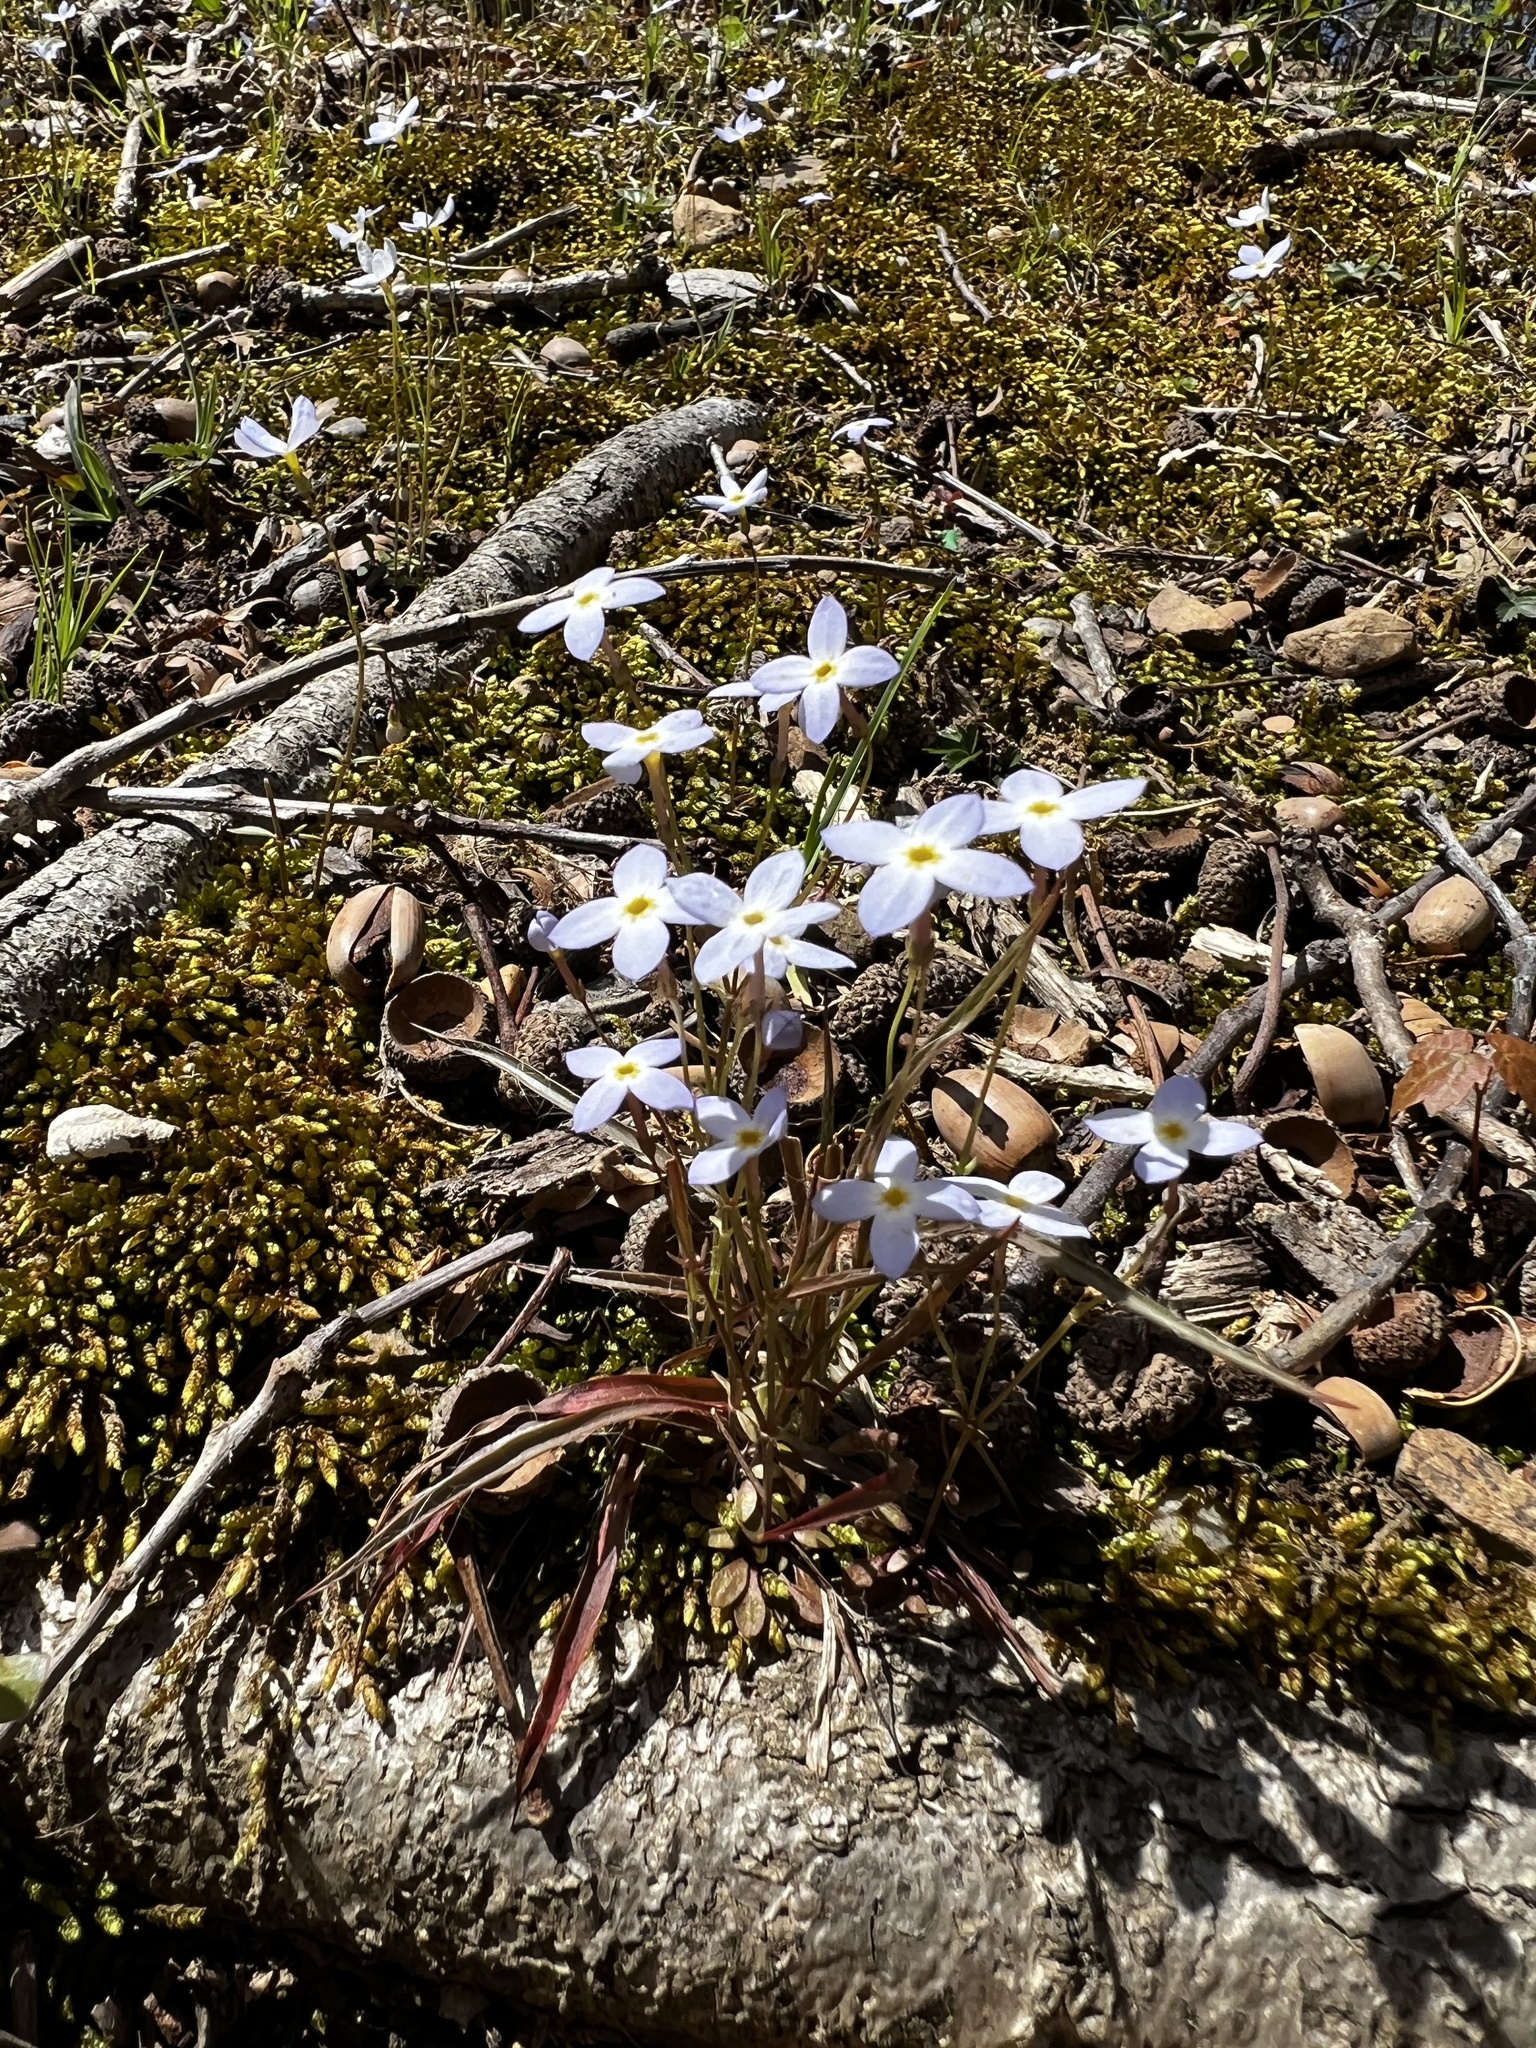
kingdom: Plantae
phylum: Tracheophyta
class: Magnoliopsida
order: Gentianales
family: Rubiaceae
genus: Houstonia
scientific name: Houstonia caerulea
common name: Bluets
